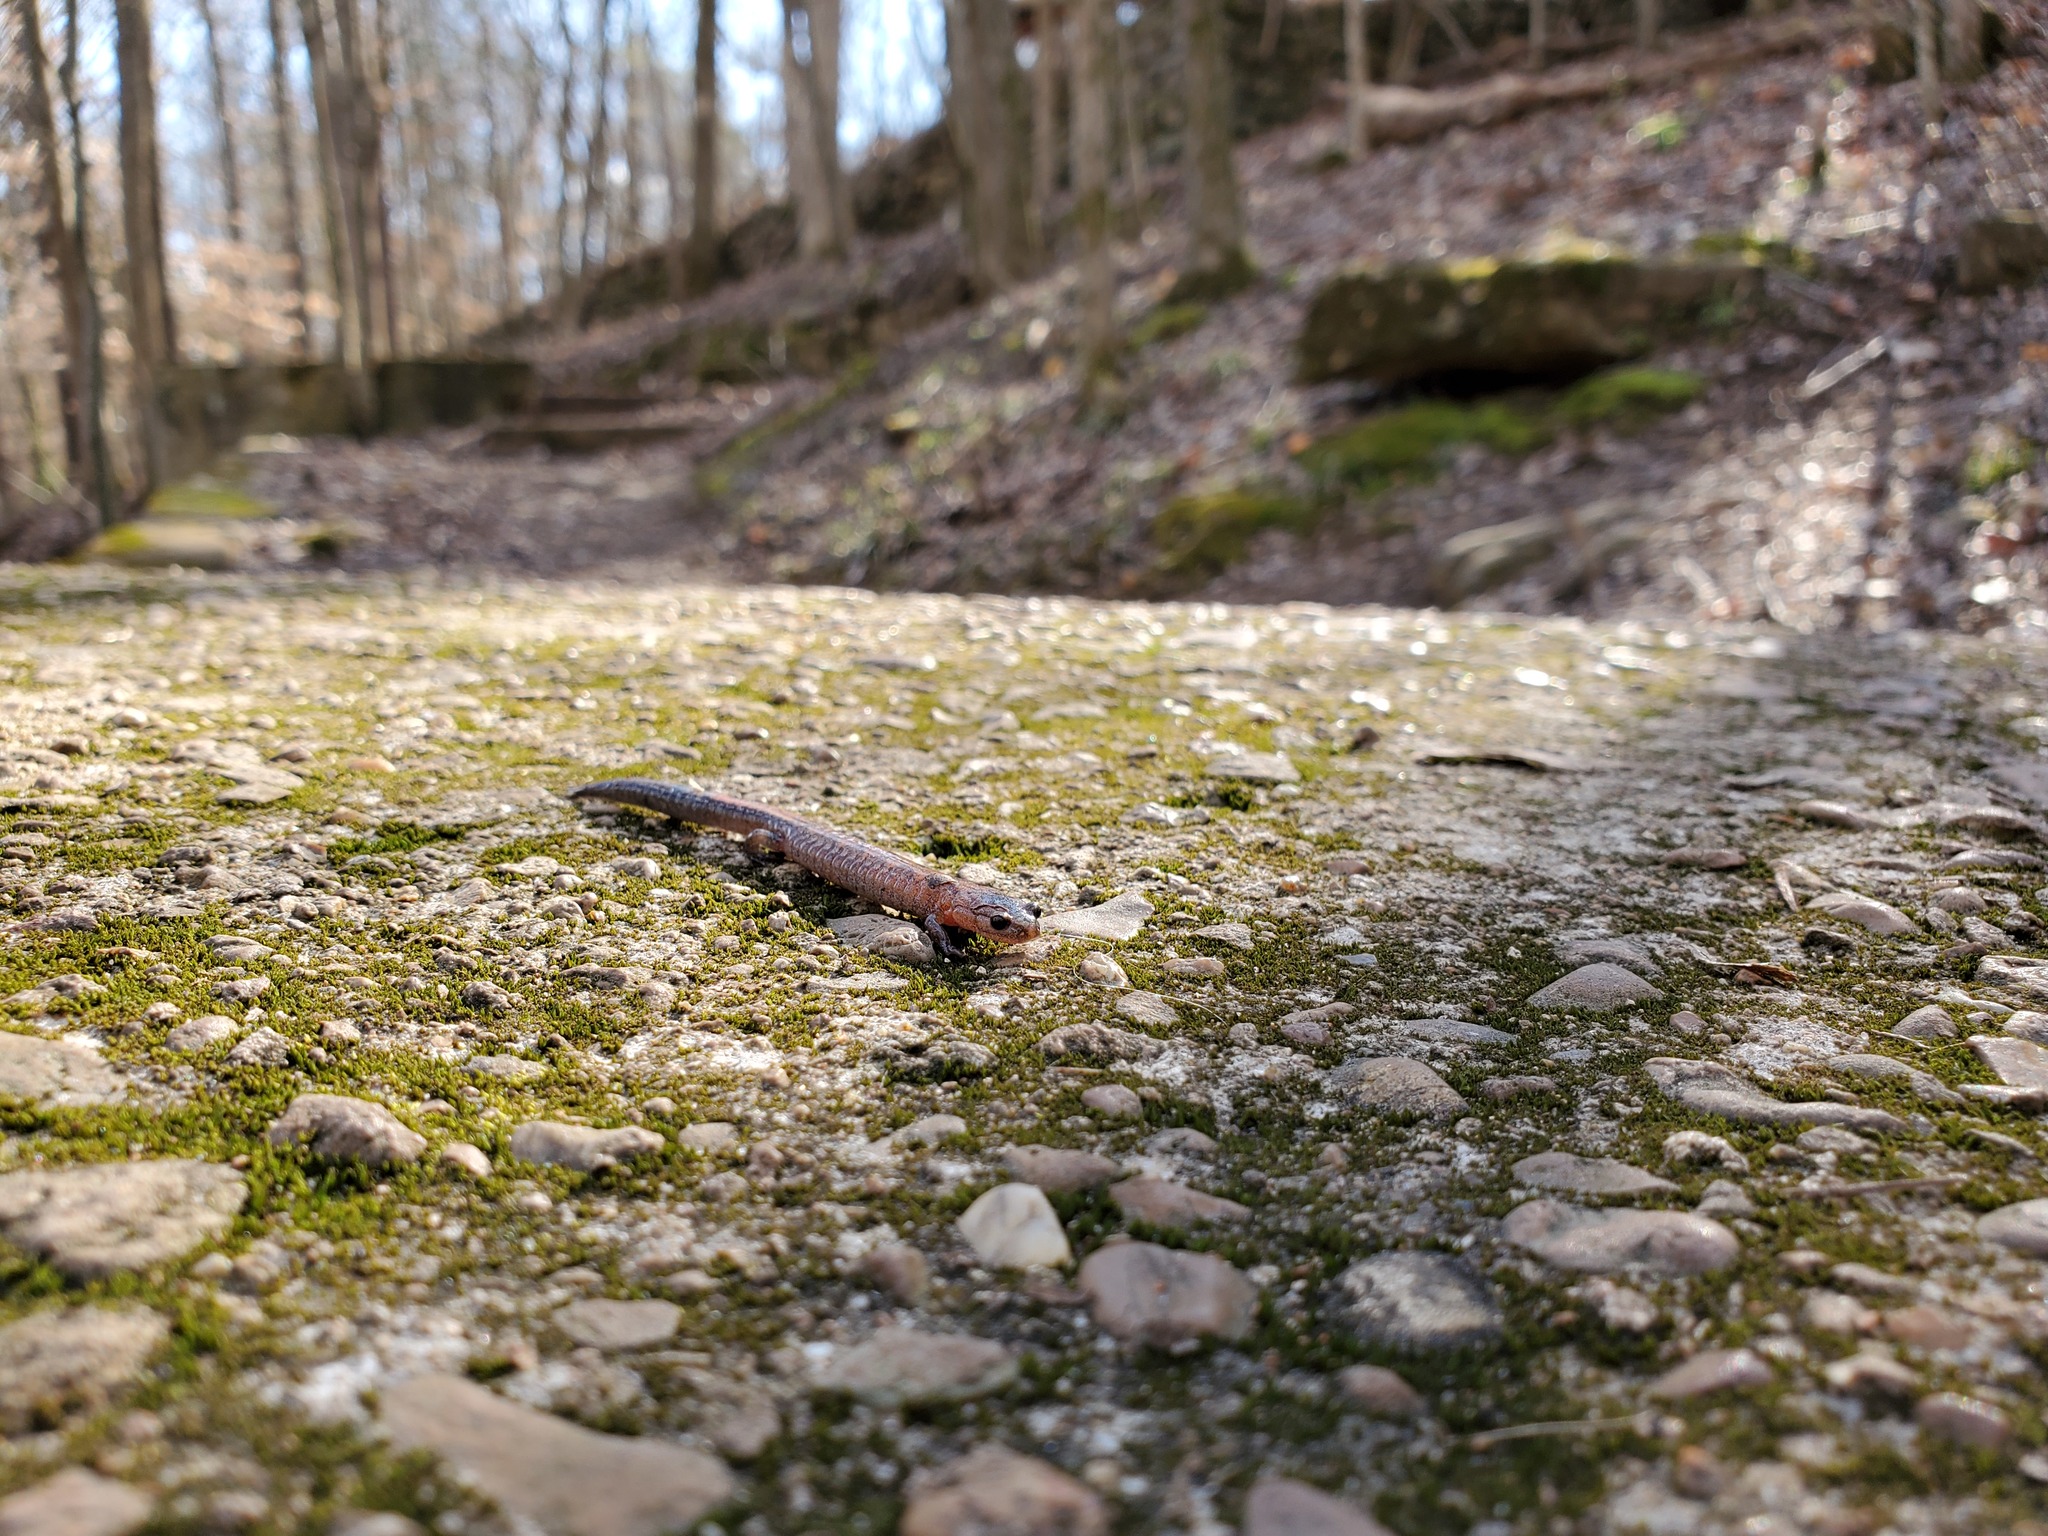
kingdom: Animalia
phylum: Chordata
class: Amphibia
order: Caudata
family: Plethodontidae
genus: Plethodon
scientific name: Plethodon dorsalis
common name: Northern zigzag salamander
